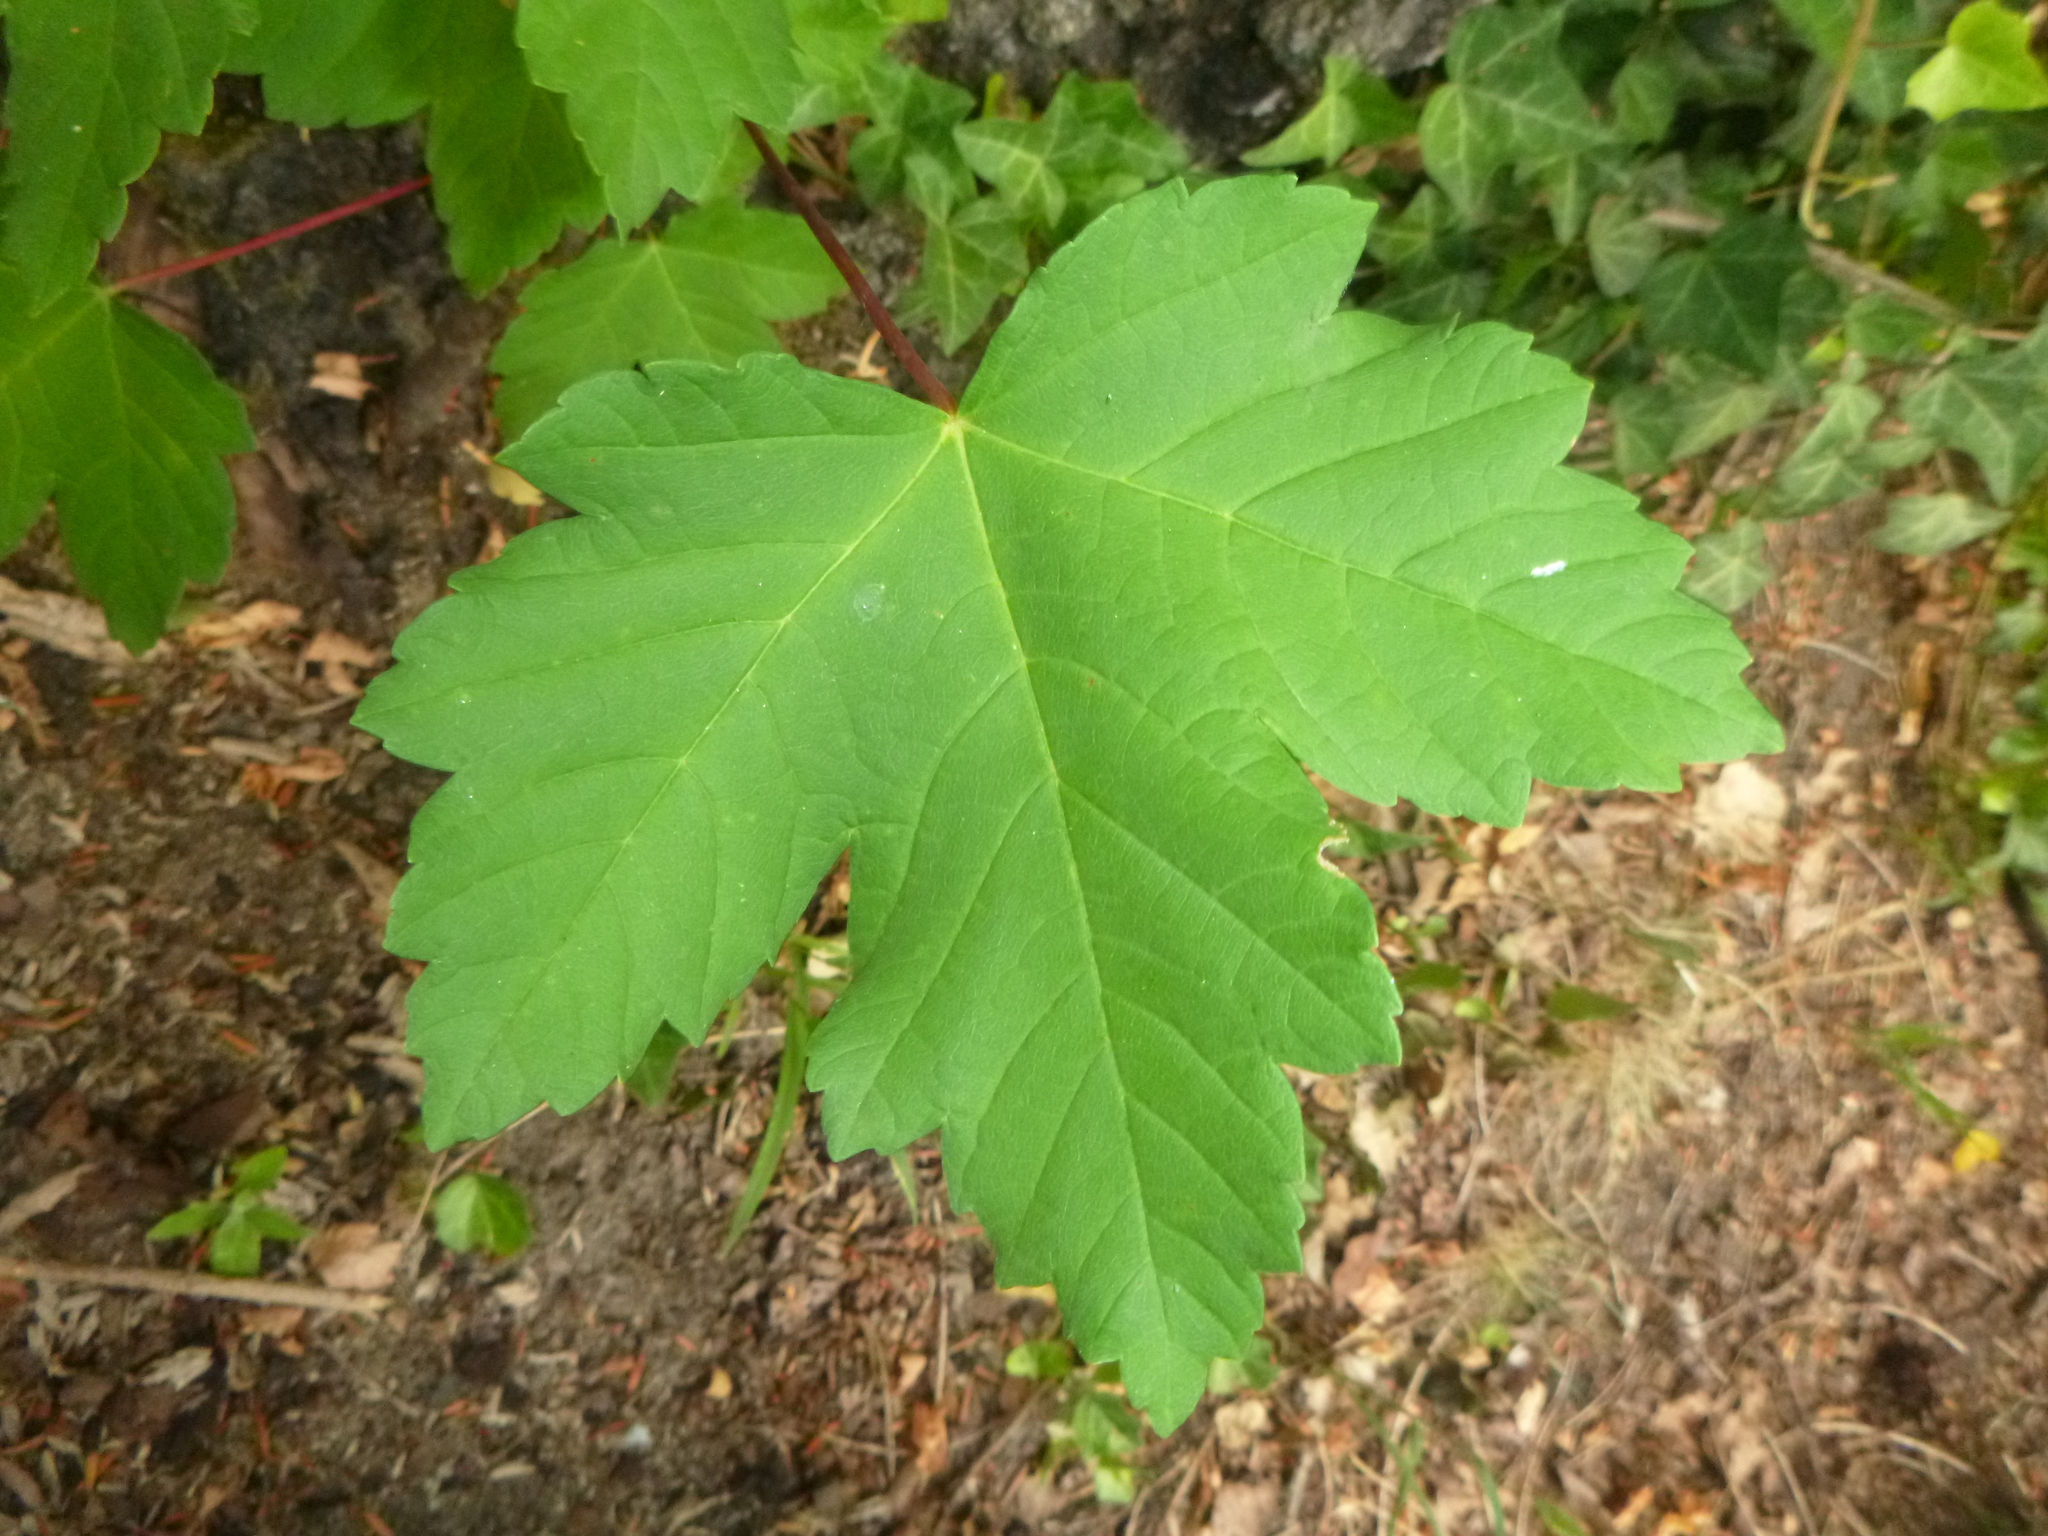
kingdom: Plantae
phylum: Tracheophyta
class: Magnoliopsida
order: Sapindales
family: Sapindaceae
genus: Acer
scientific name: Acer pseudoplatanus
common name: Sycamore
